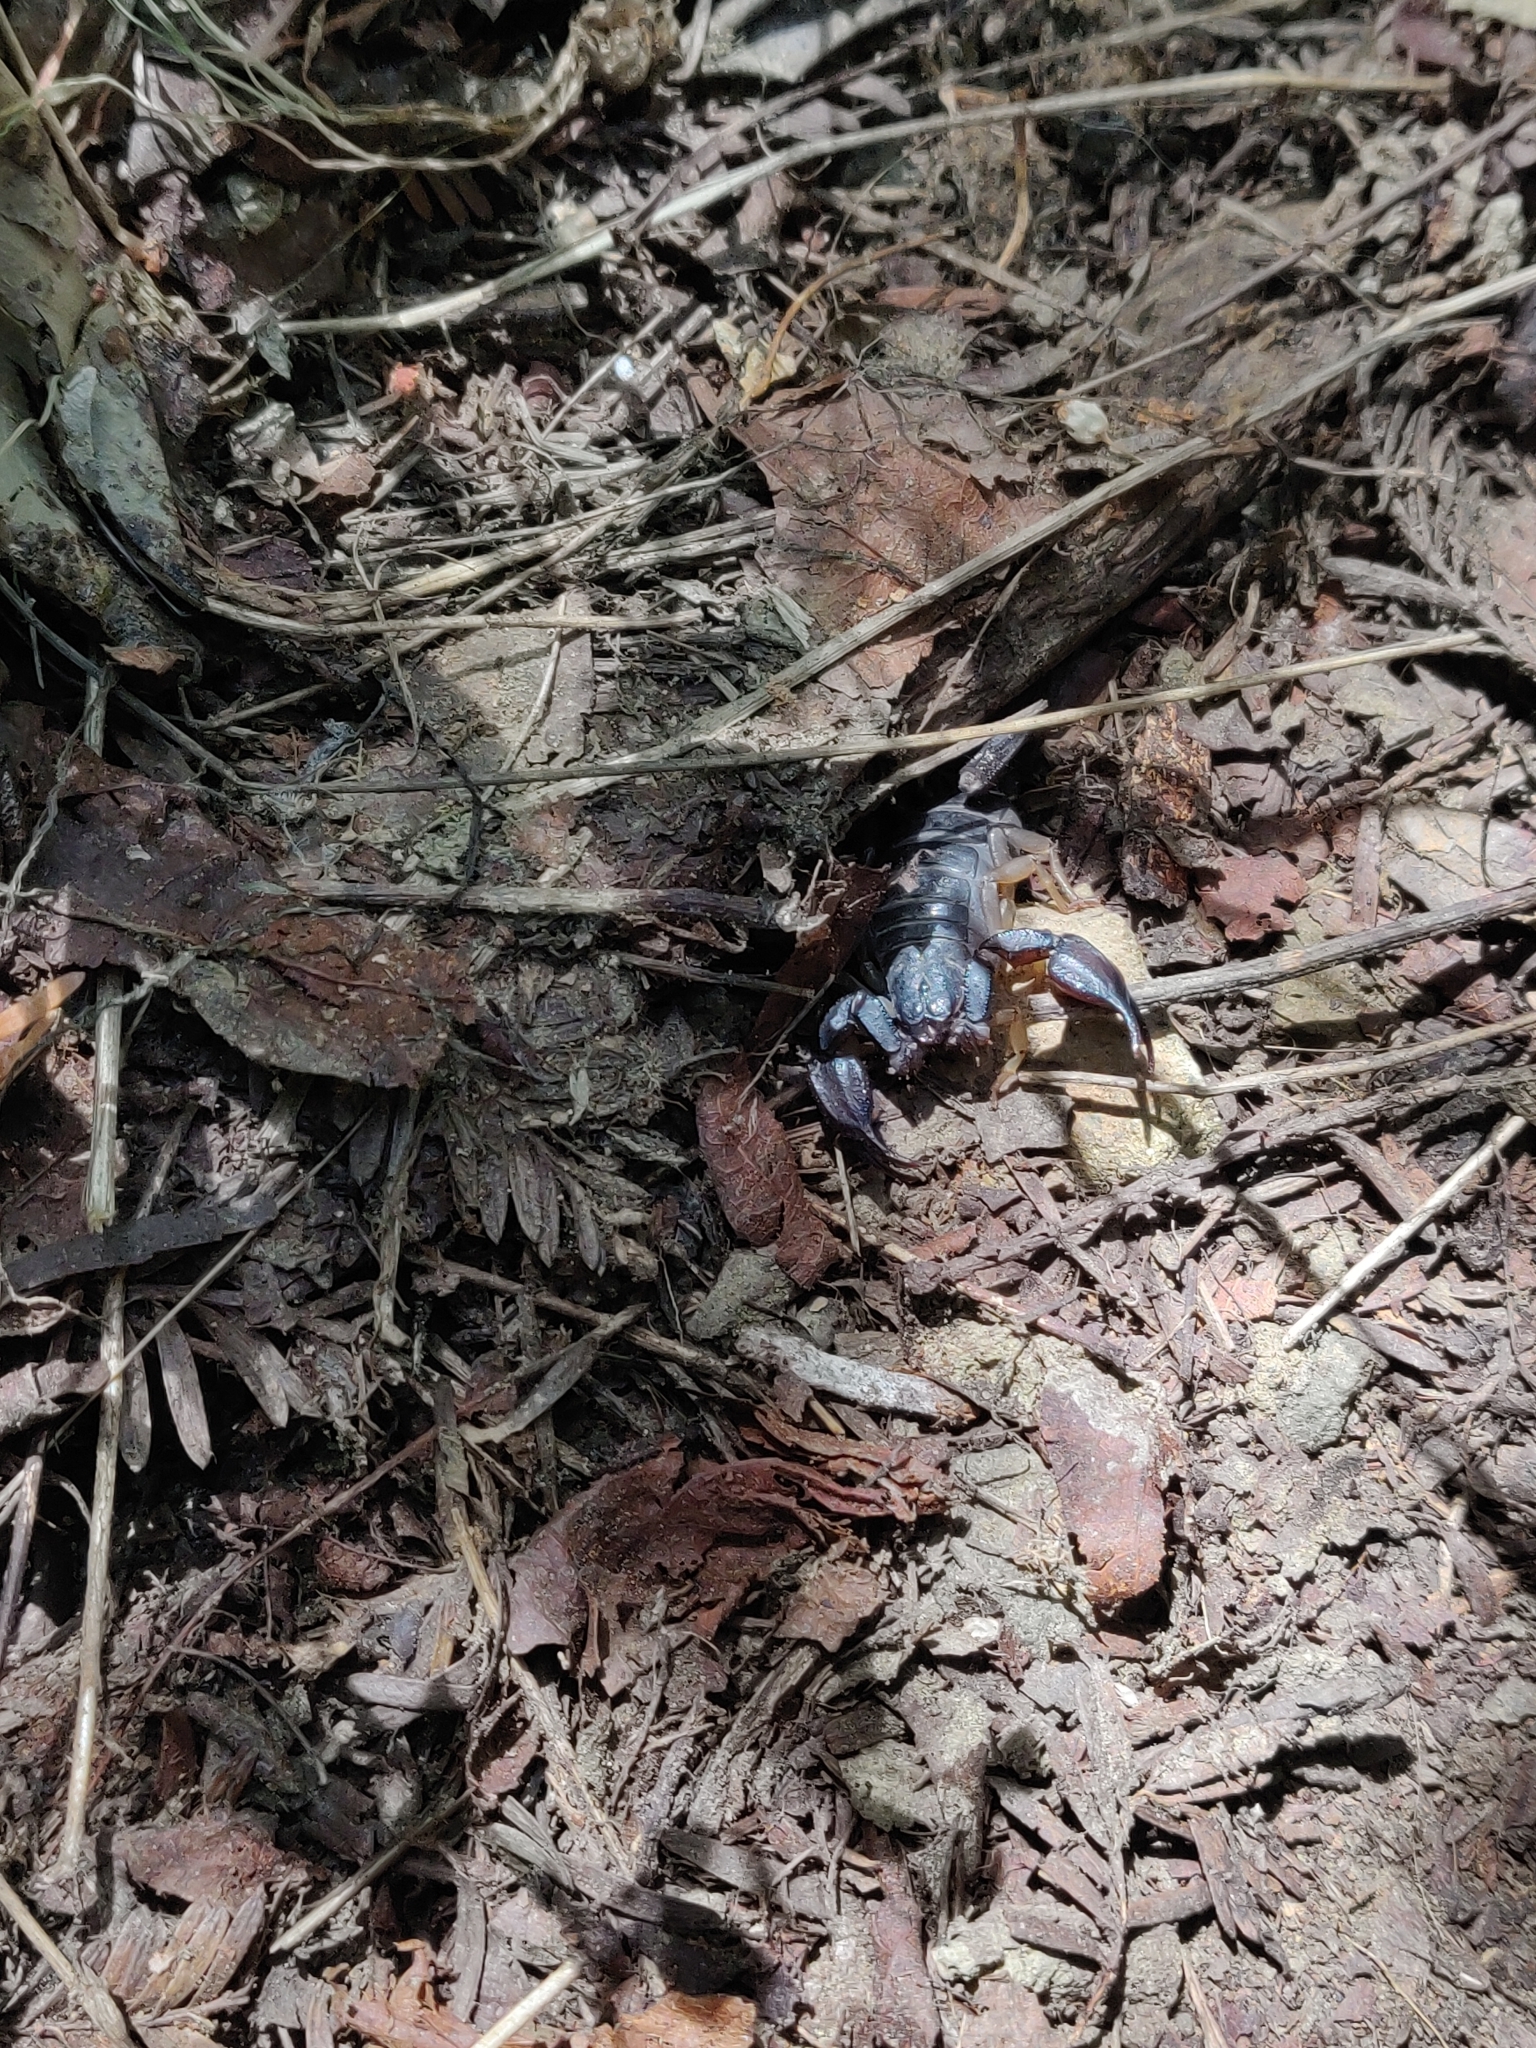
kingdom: Animalia
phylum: Arthropoda
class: Arachnida
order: Scorpiones
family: Chactidae
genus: Uroctonus
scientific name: Uroctonus mordax
